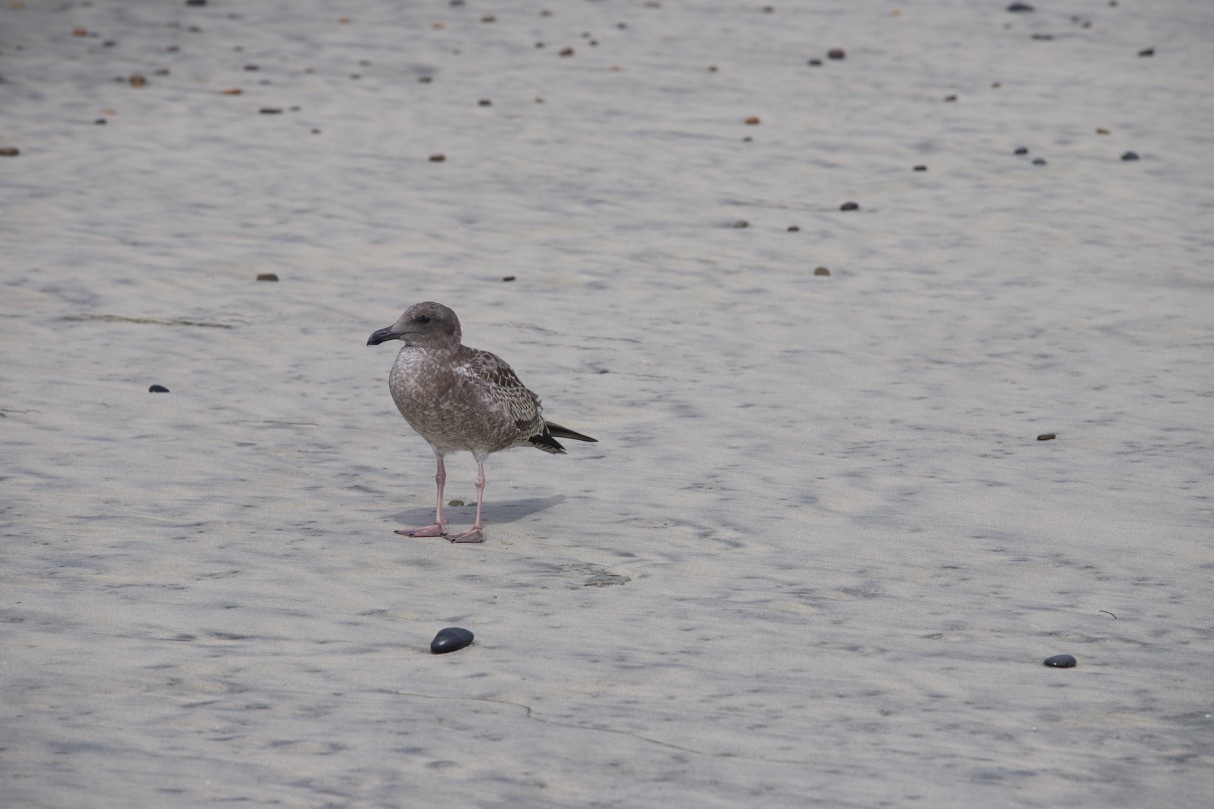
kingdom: Animalia
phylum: Chordata
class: Aves
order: Charadriiformes
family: Laridae
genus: Larus
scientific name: Larus occidentalis
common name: Western gull
